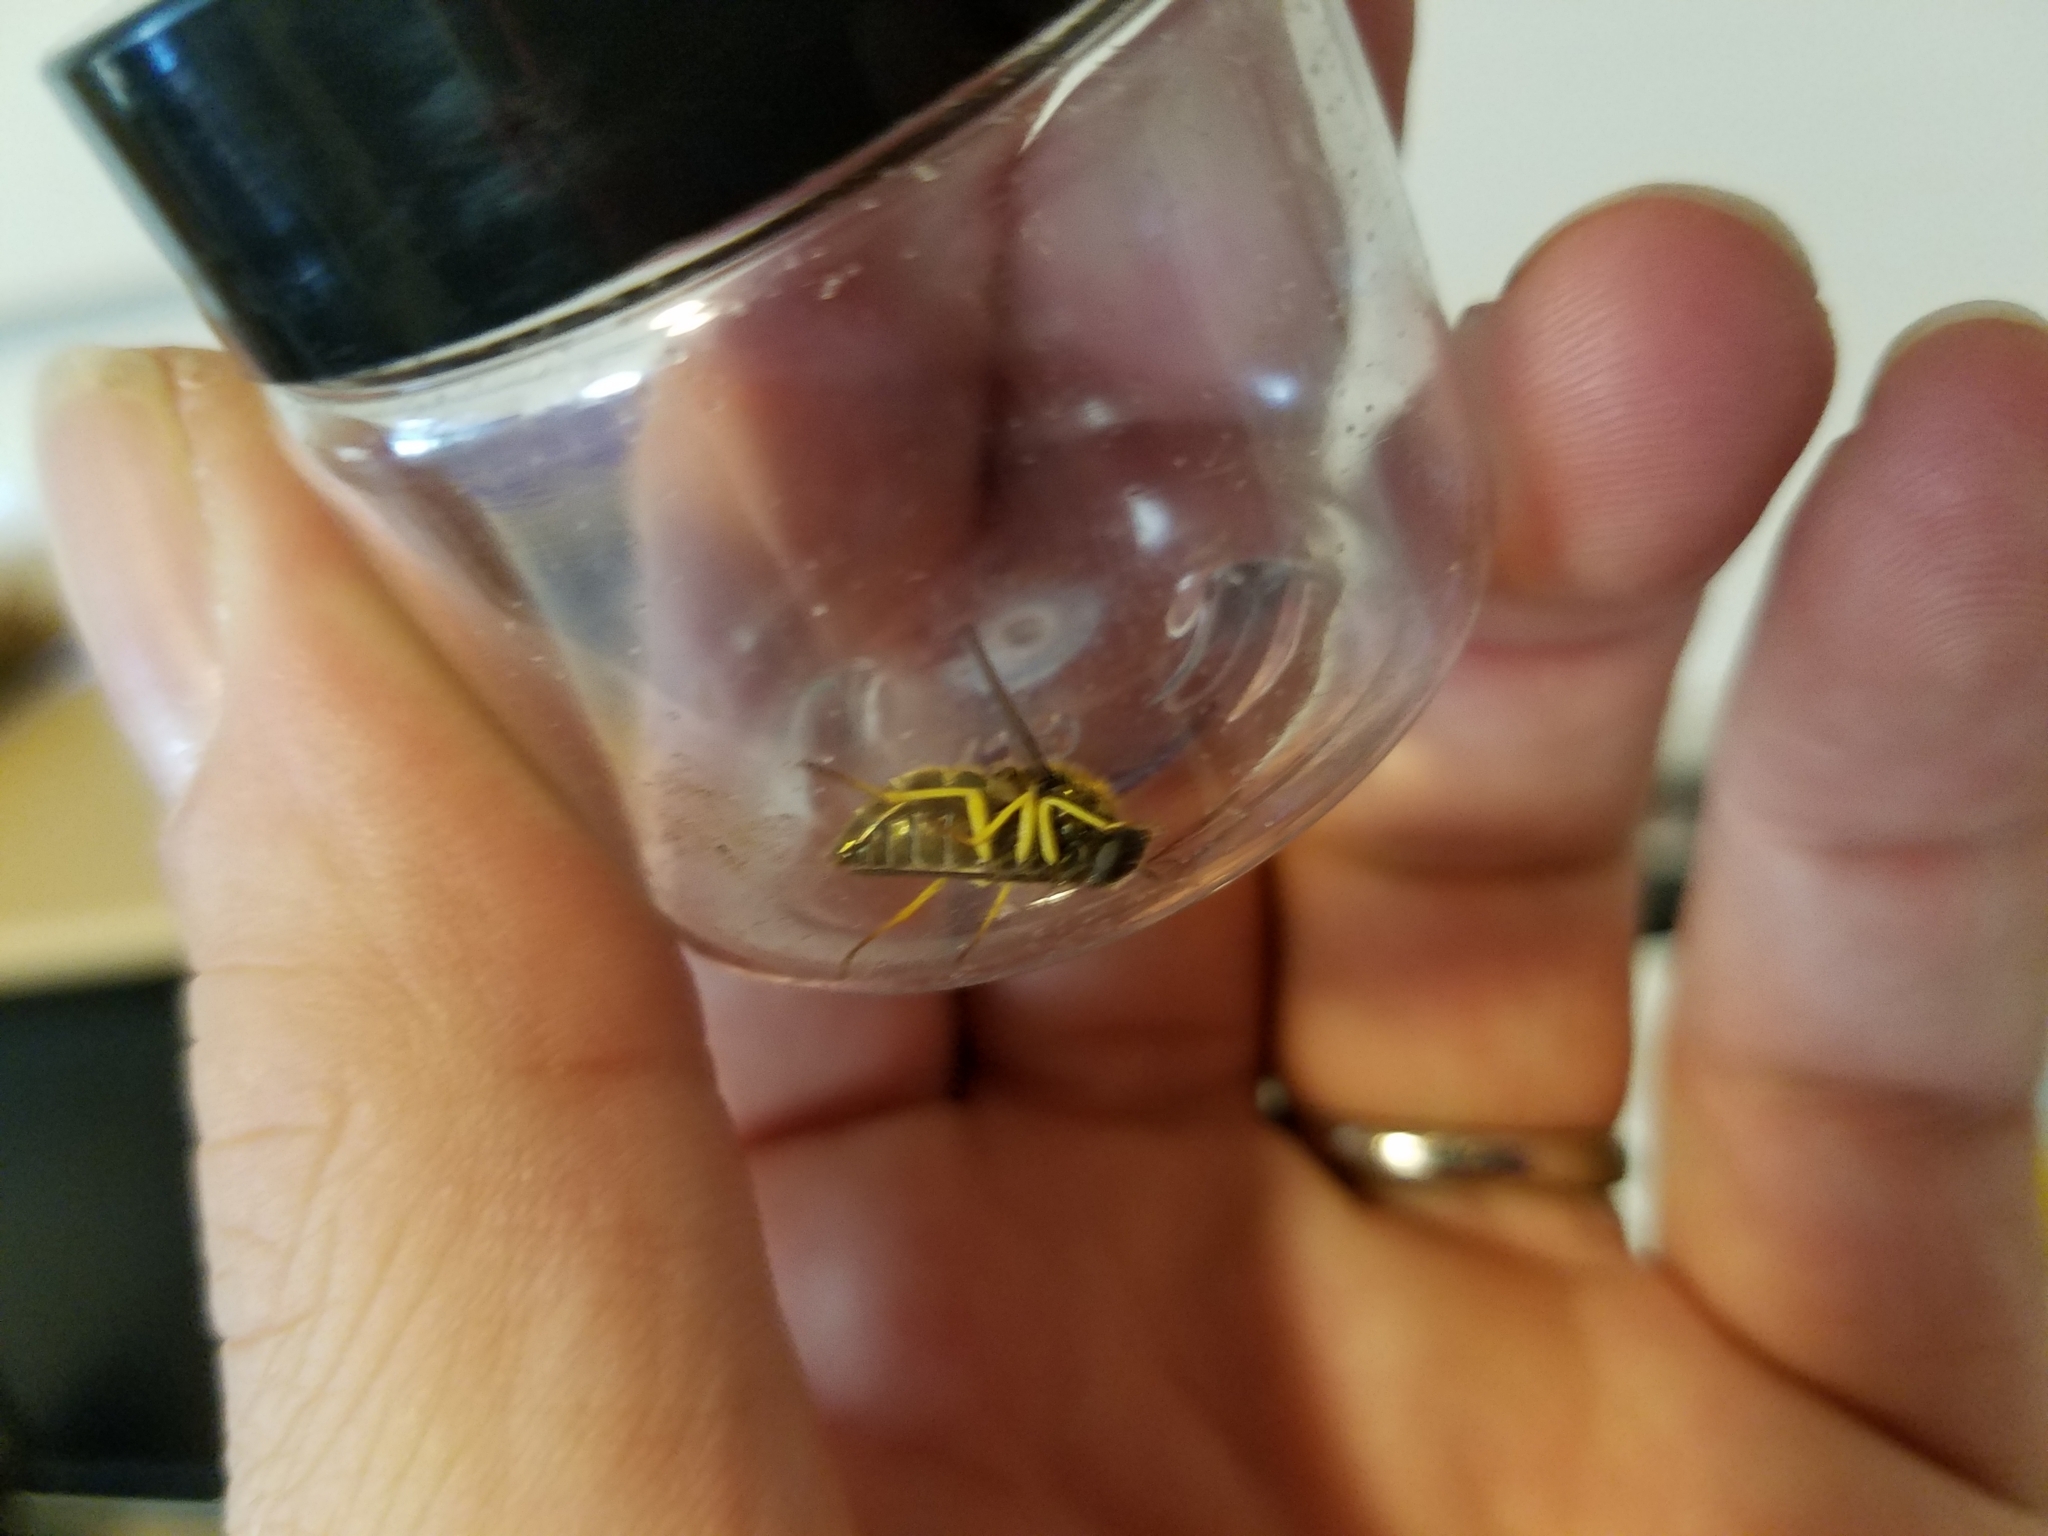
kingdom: Animalia
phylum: Arthropoda
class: Insecta
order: Diptera
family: Acroceridae
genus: Eulonchus
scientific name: Eulonchus sapphirinus
